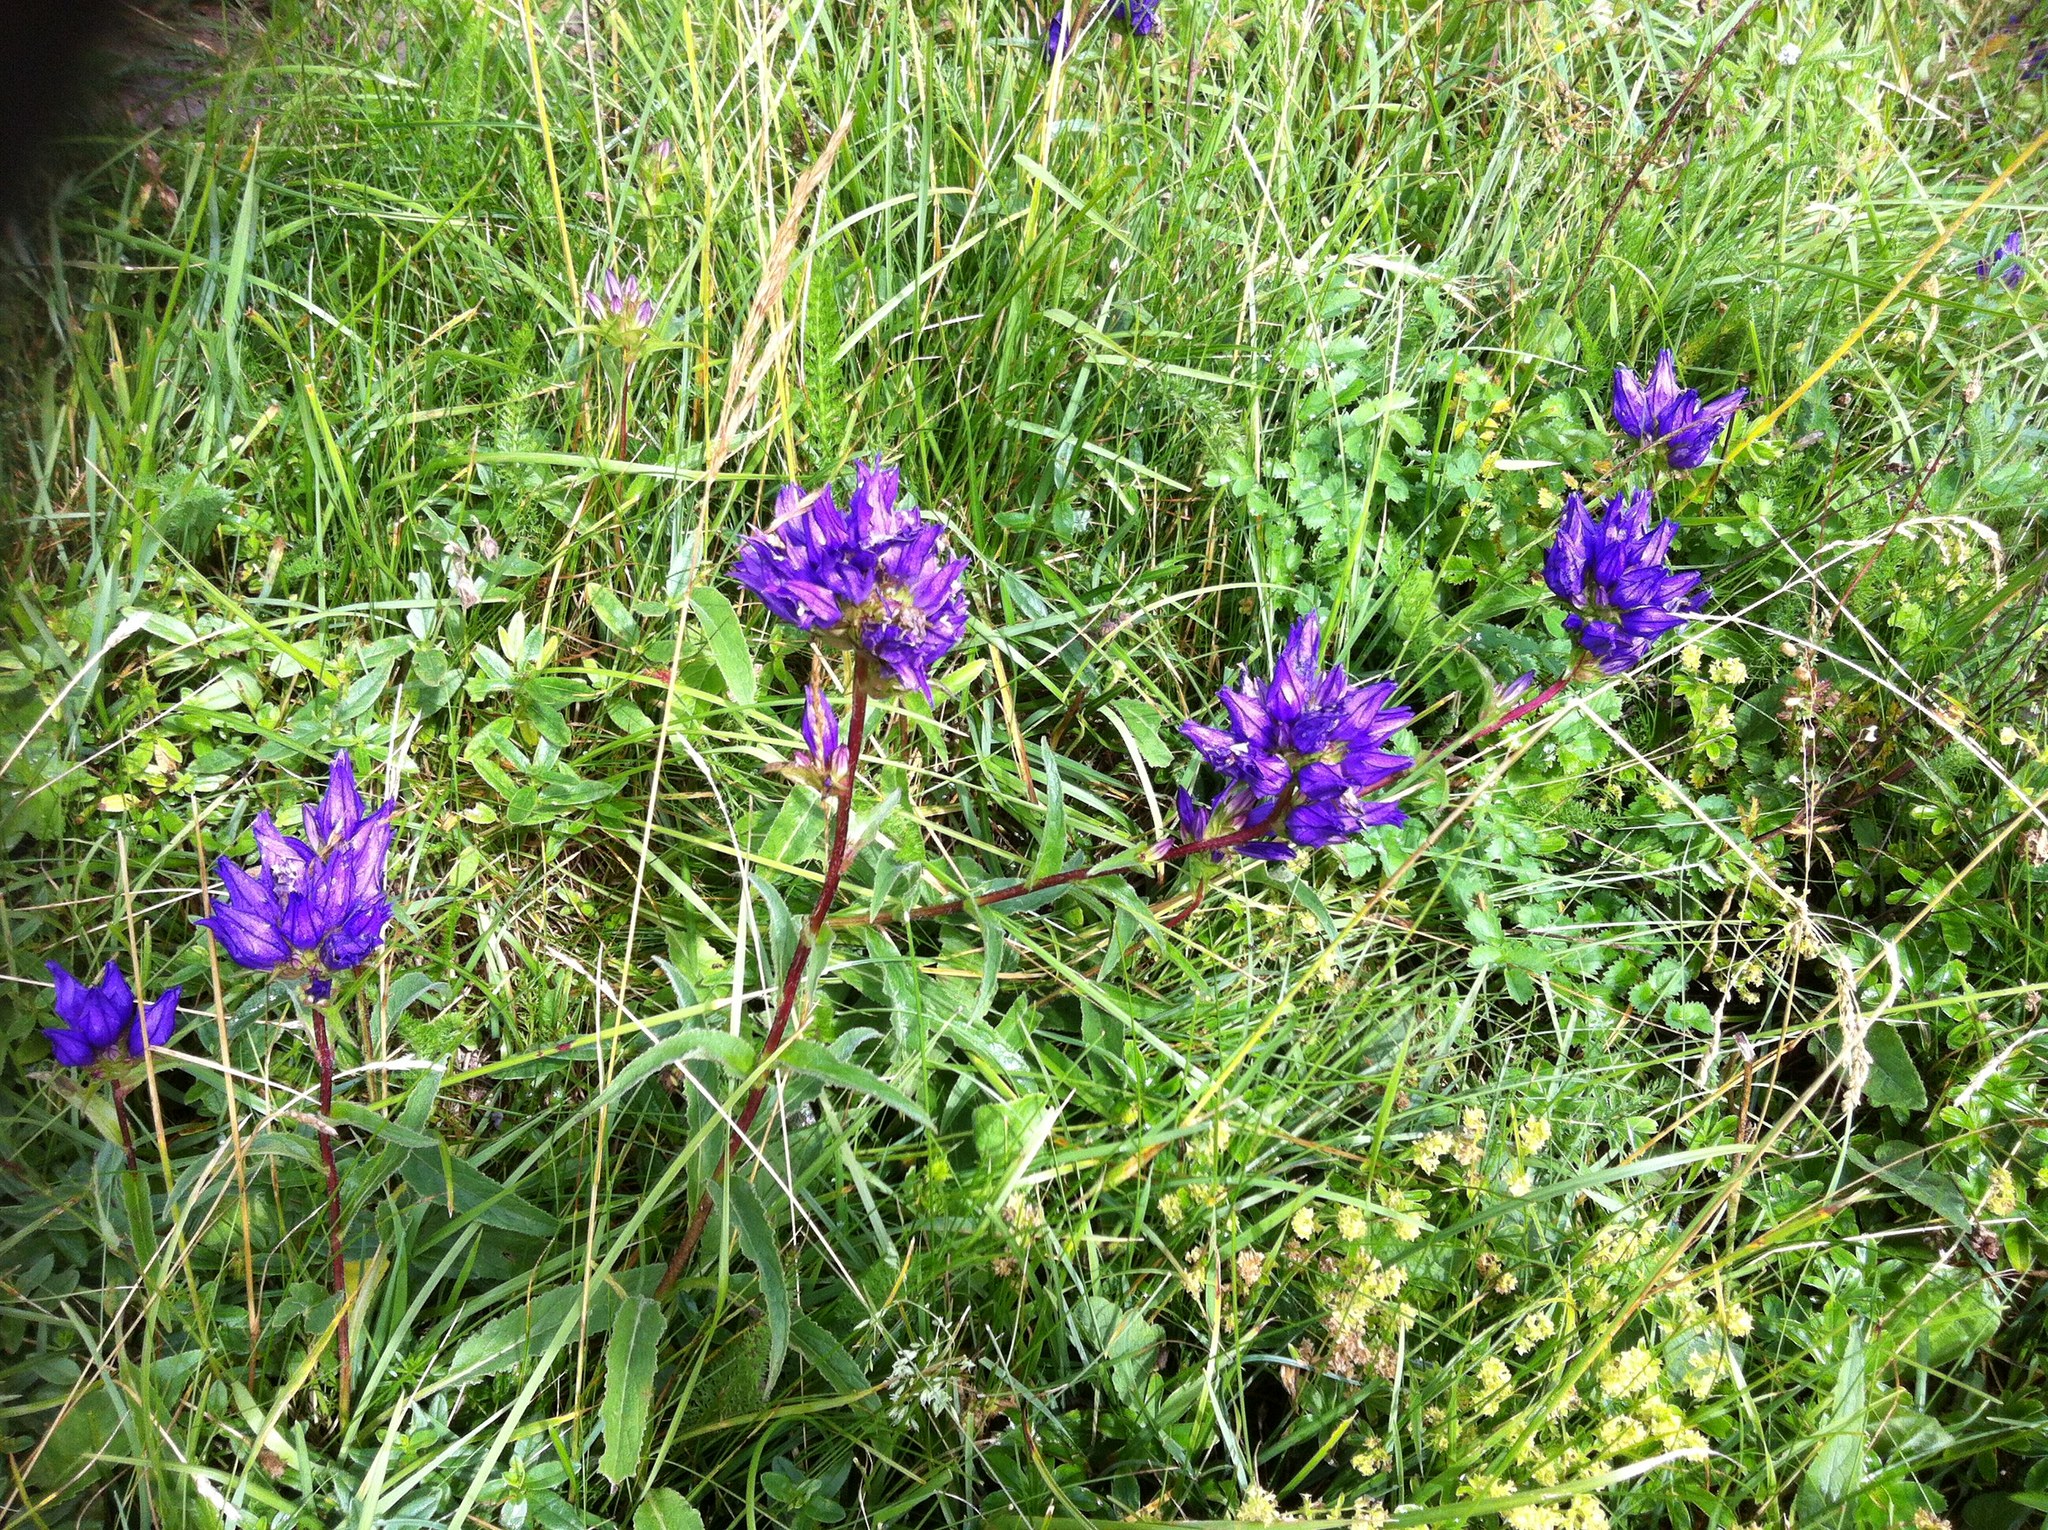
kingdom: Plantae
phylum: Tracheophyta
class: Magnoliopsida
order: Asterales
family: Campanulaceae
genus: Campanula
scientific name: Campanula glomerata
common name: Clustered bellflower
